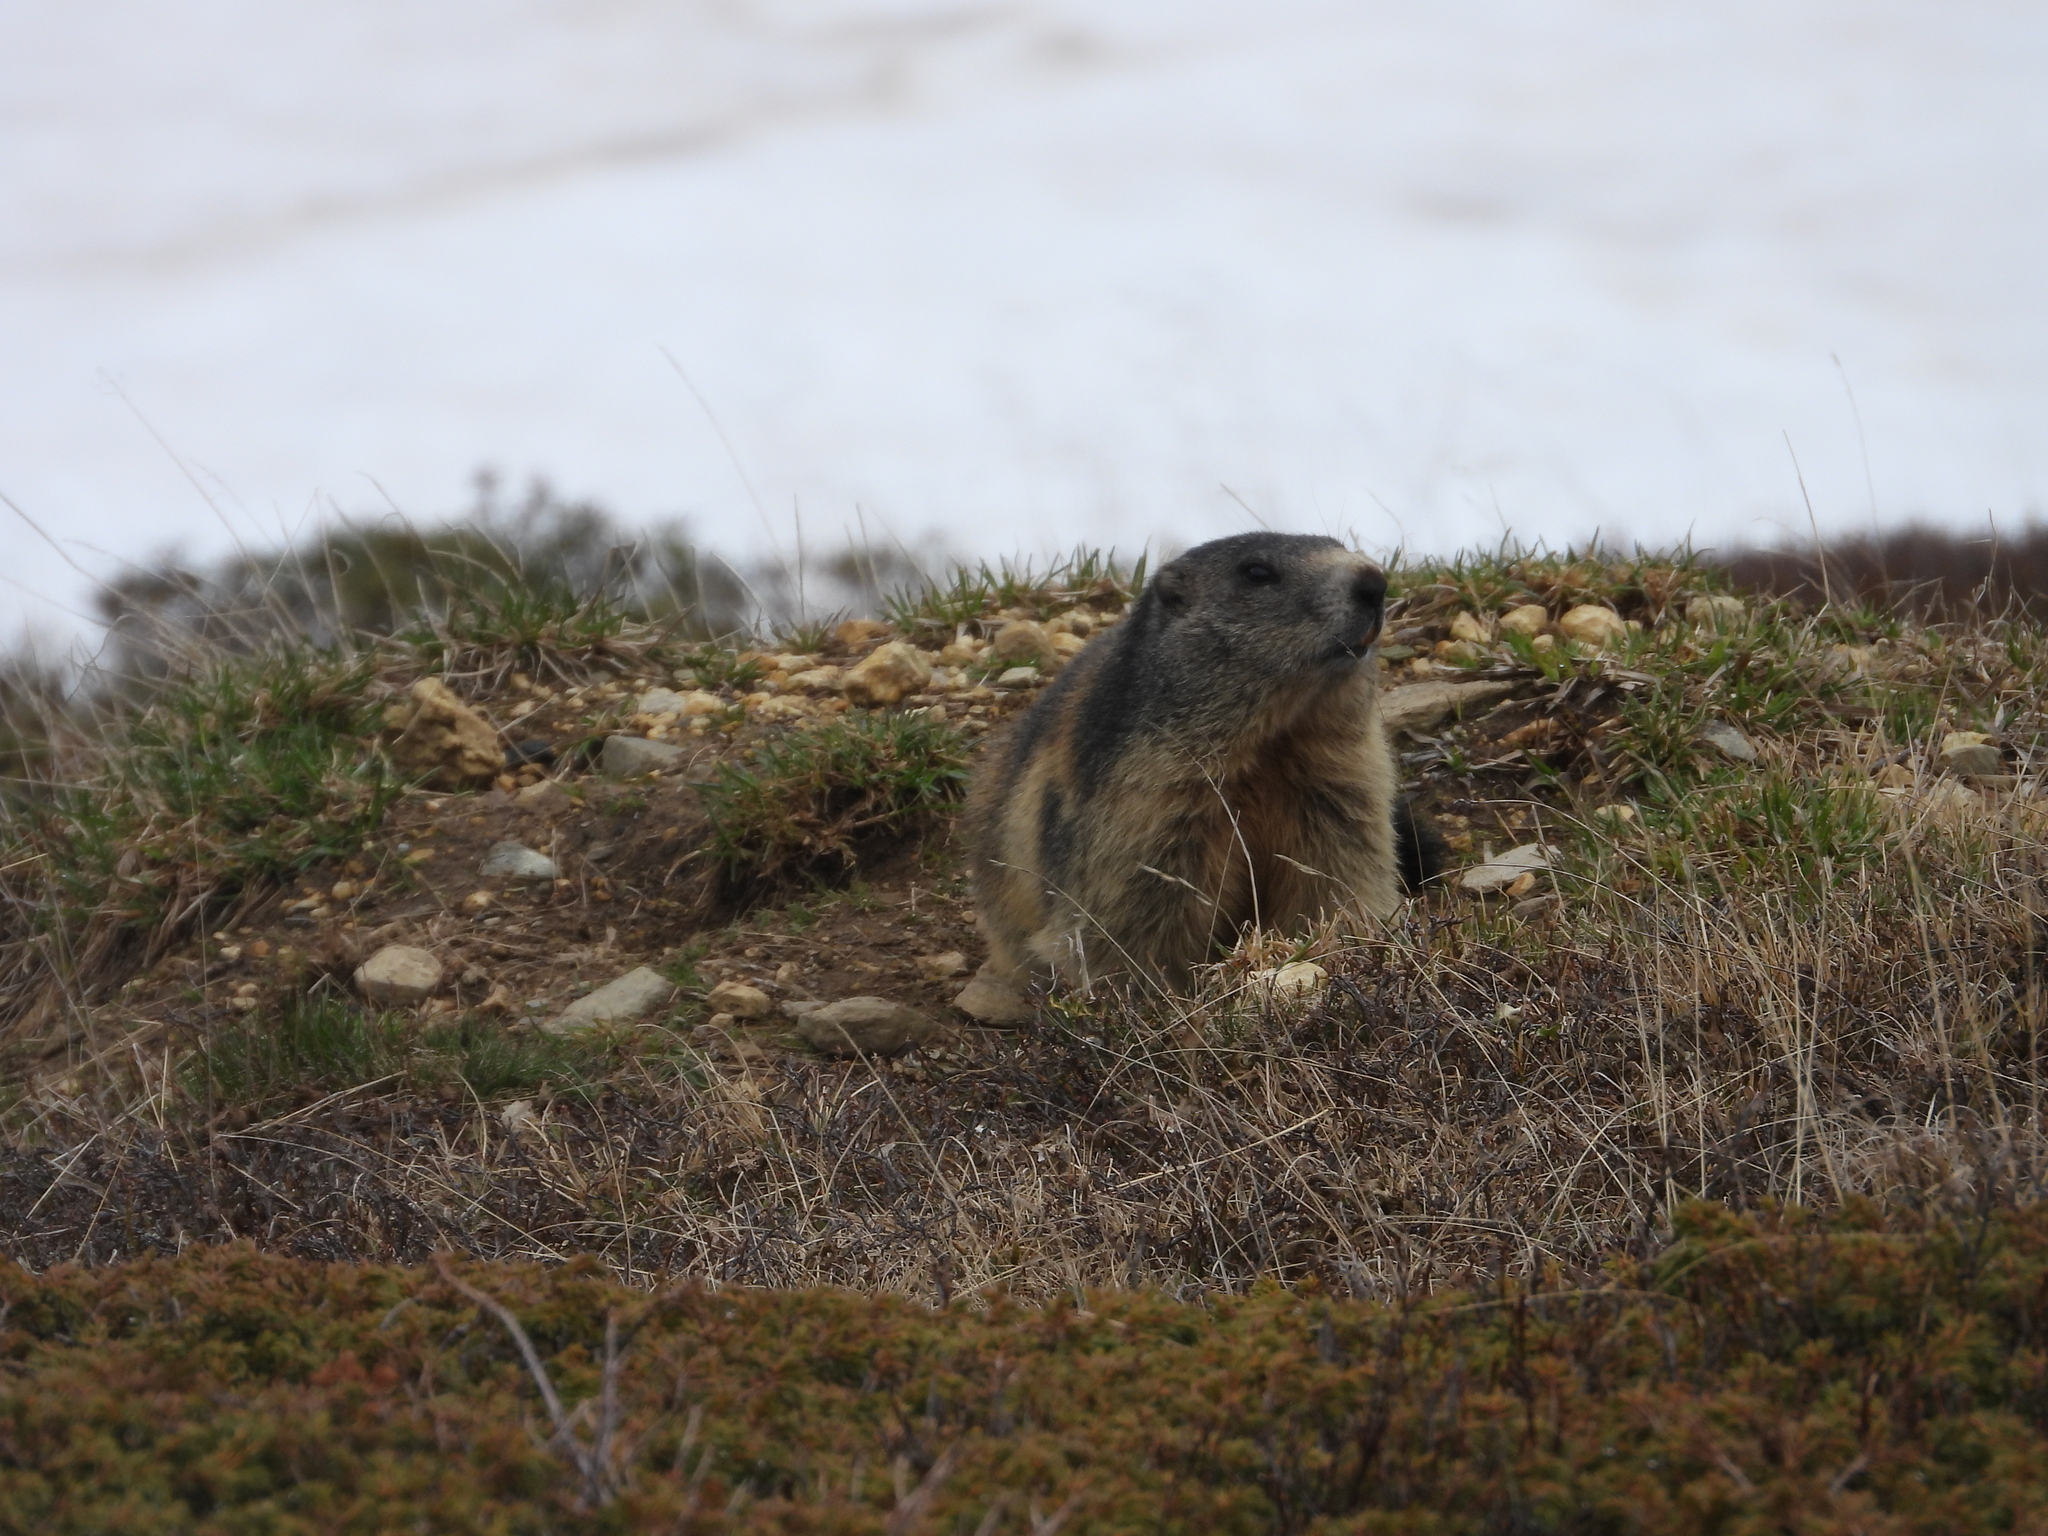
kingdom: Animalia
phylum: Chordata
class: Mammalia
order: Rodentia
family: Sciuridae
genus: Marmota
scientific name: Marmota marmota
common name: Alpine marmot
